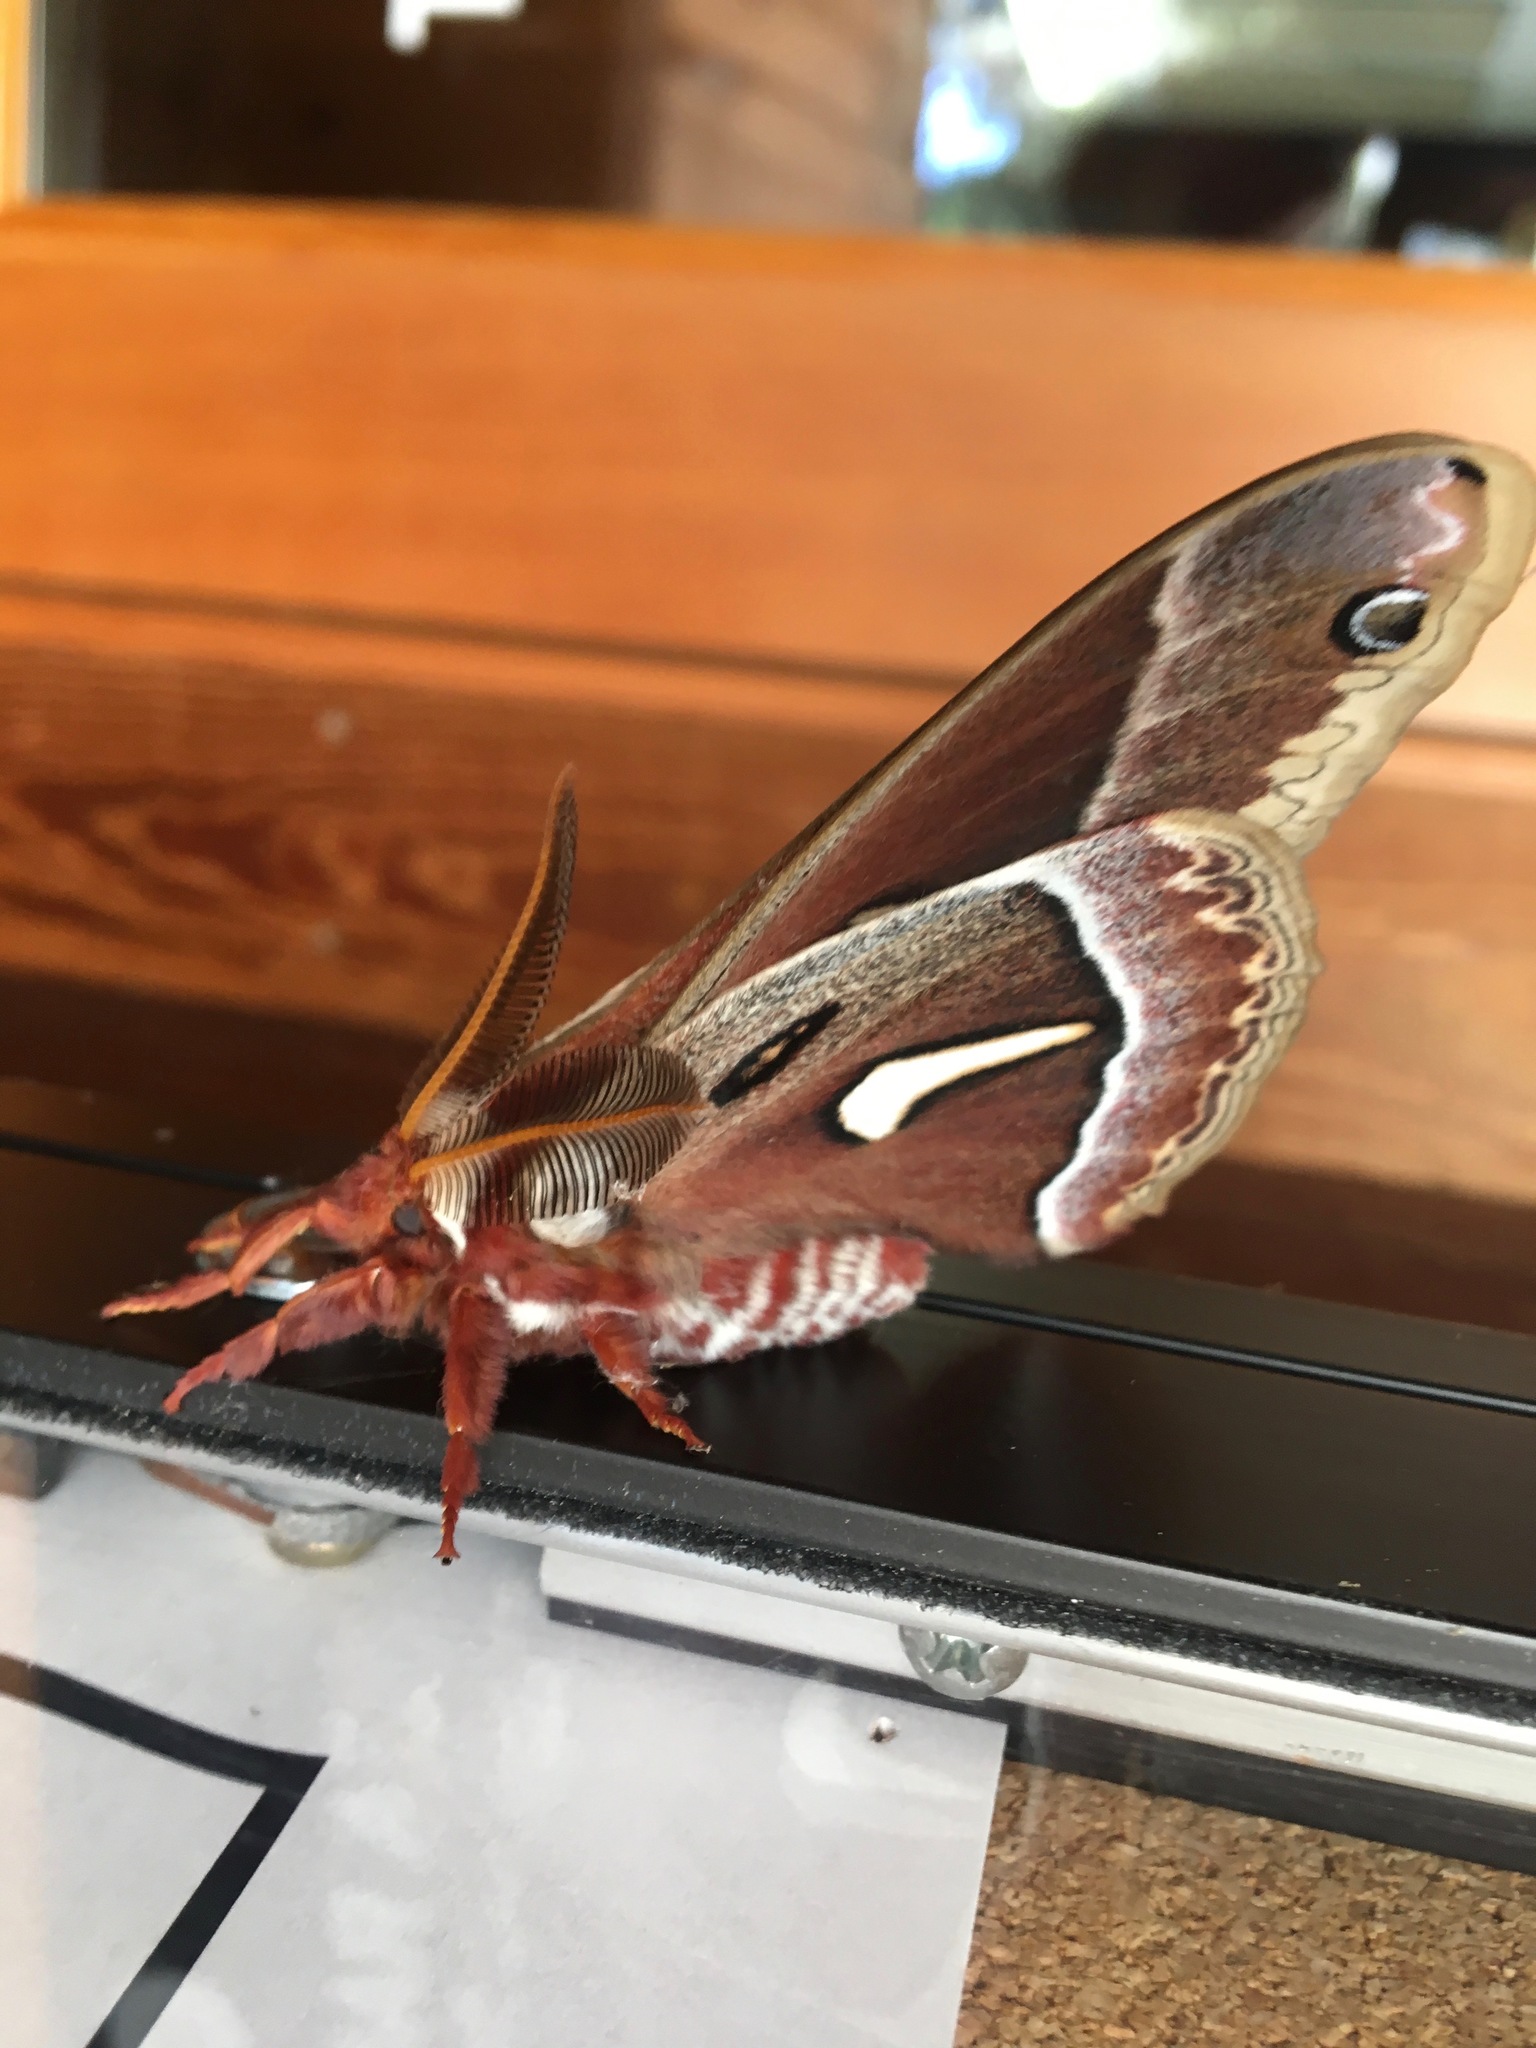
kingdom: Animalia
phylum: Arthropoda
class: Insecta
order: Lepidoptera
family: Saturniidae
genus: Hyalophora
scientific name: Hyalophora euryalus
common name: Ceanothus silkmoth
